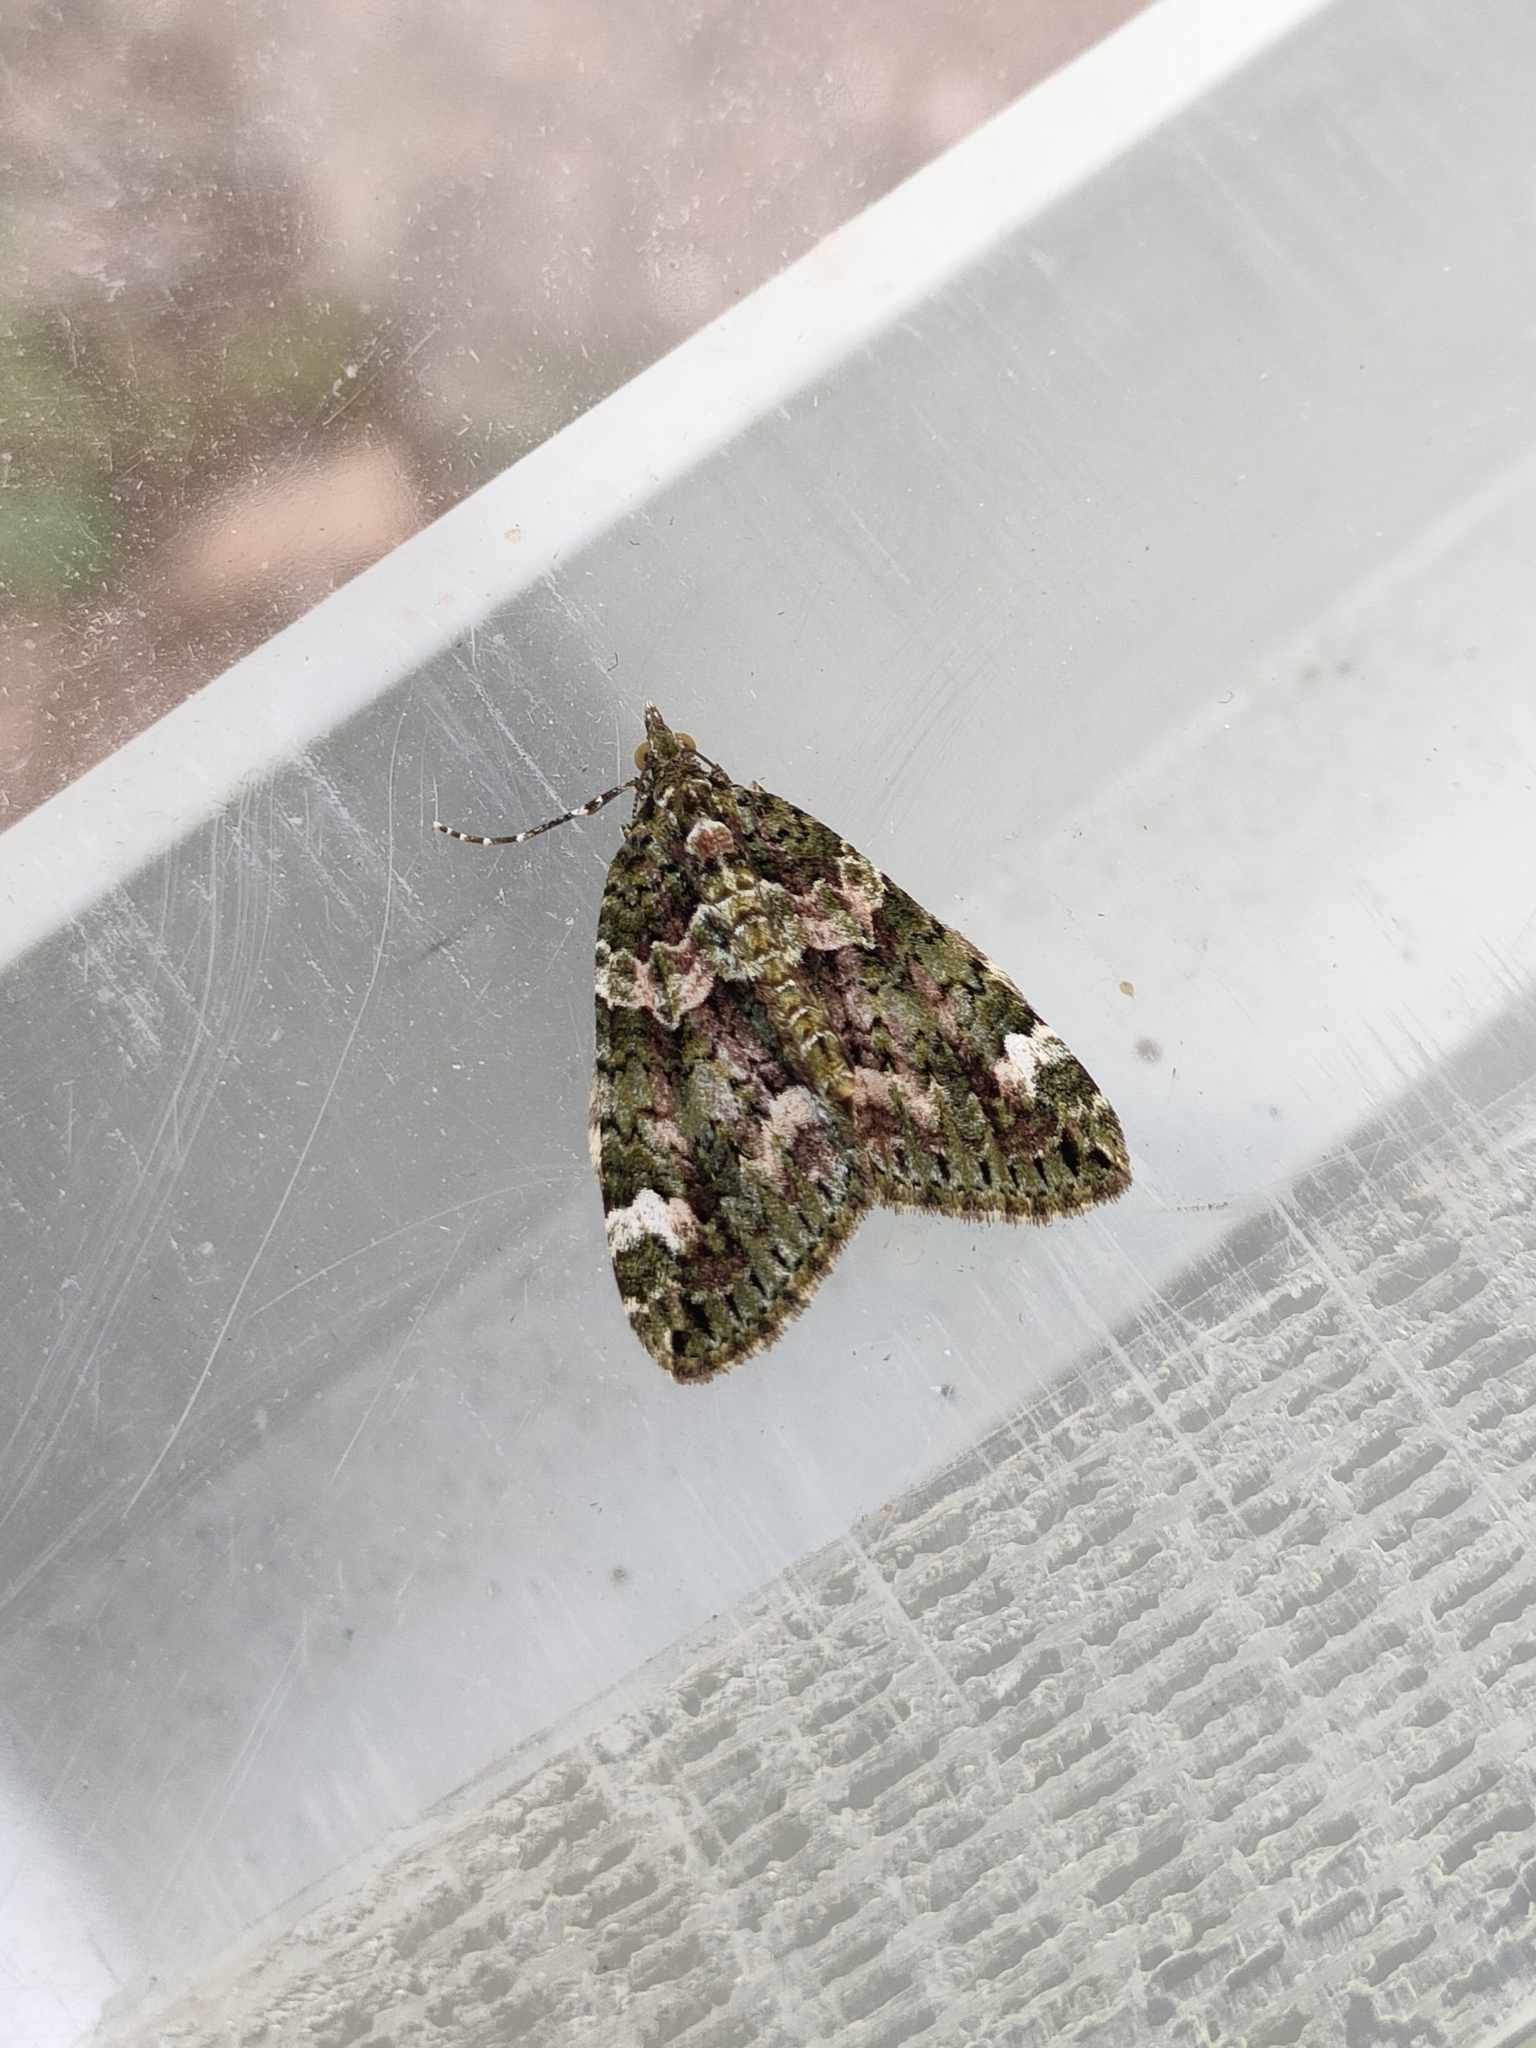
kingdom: Animalia
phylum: Arthropoda
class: Insecta
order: Lepidoptera
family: Geometridae
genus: Chloroclysta
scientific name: Chloroclysta siterata
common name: Red-green carpet
